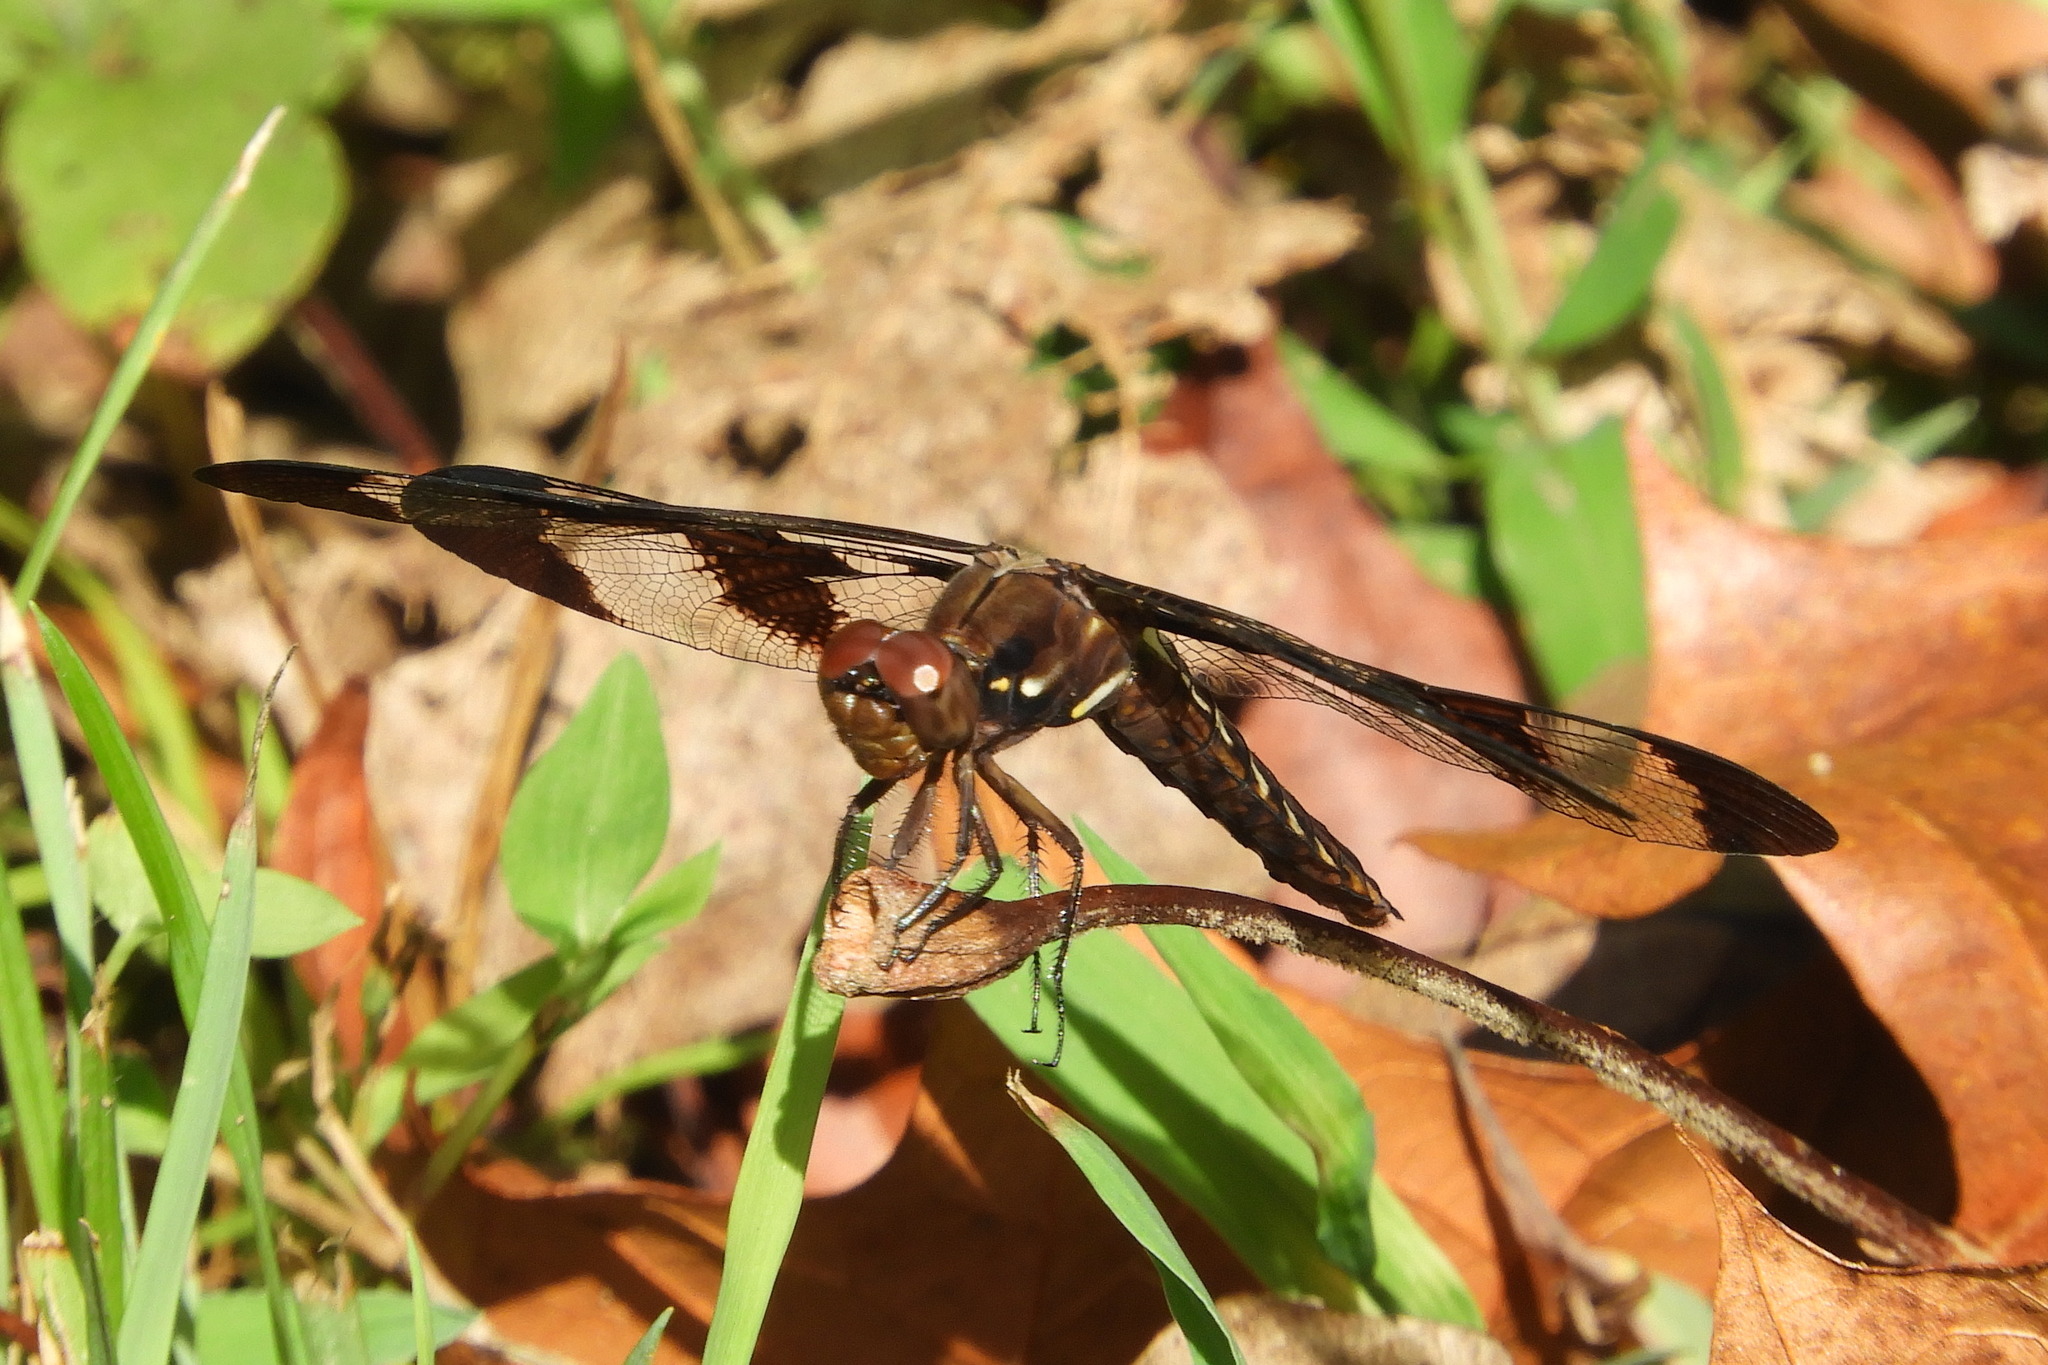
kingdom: Animalia
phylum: Arthropoda
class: Insecta
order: Odonata
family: Libellulidae
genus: Plathemis
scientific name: Plathemis lydia
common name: Common whitetail
